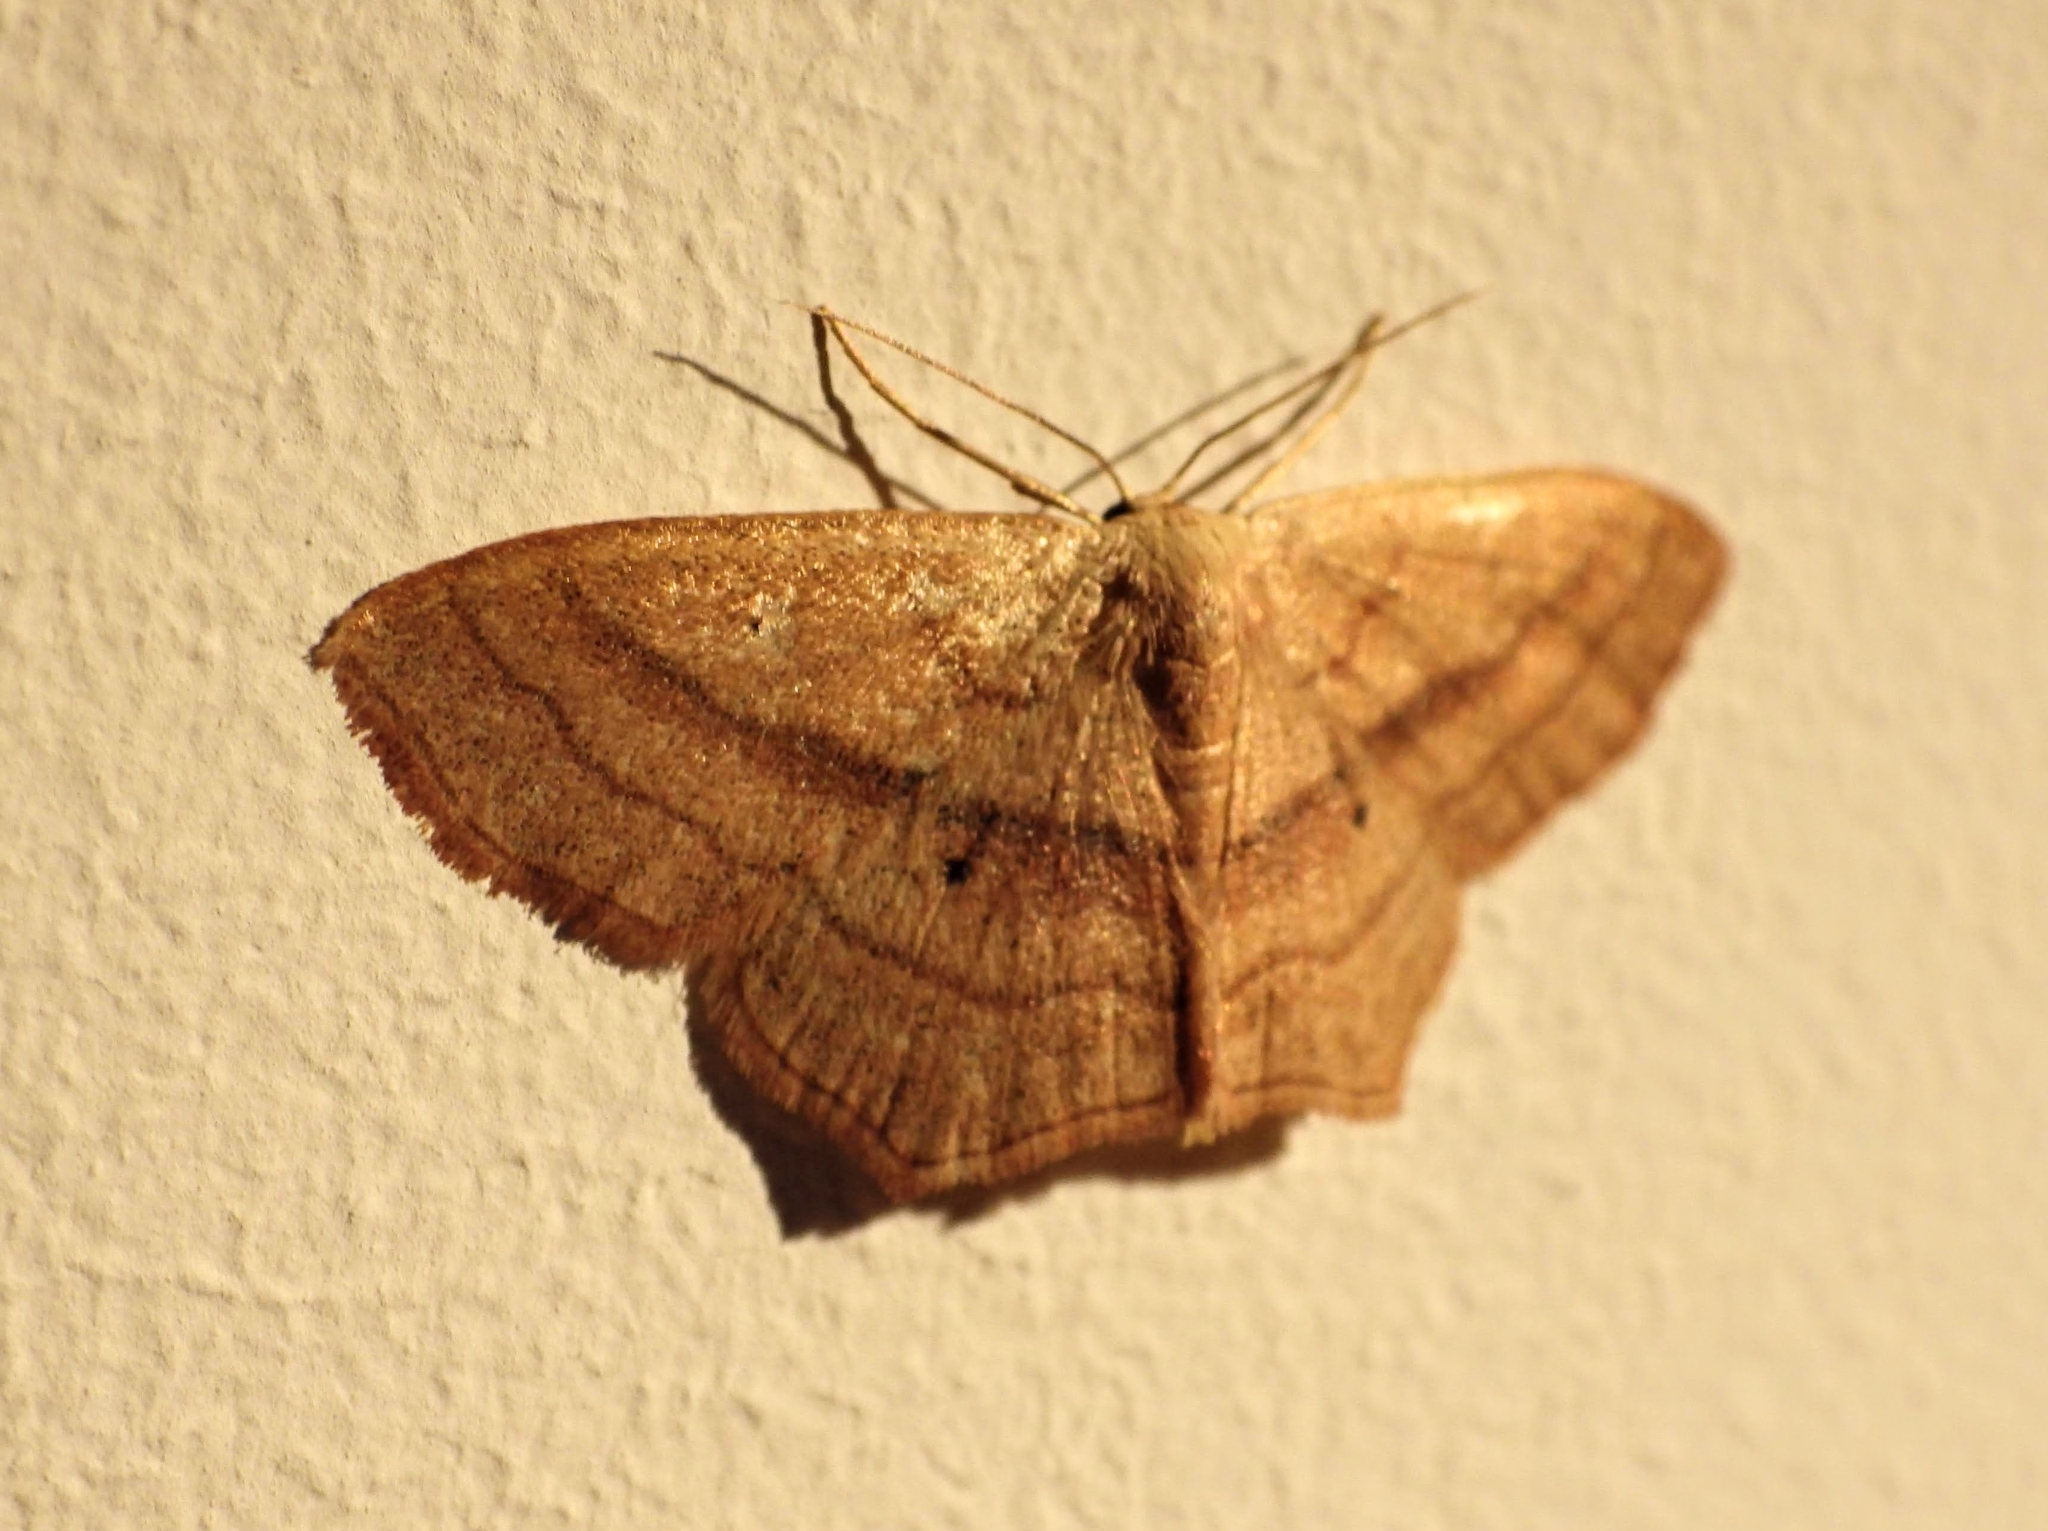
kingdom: Animalia
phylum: Arthropoda
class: Insecta
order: Lepidoptera
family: Geometridae
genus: Scopula
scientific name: Scopula imitaria
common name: Small blood-vein
